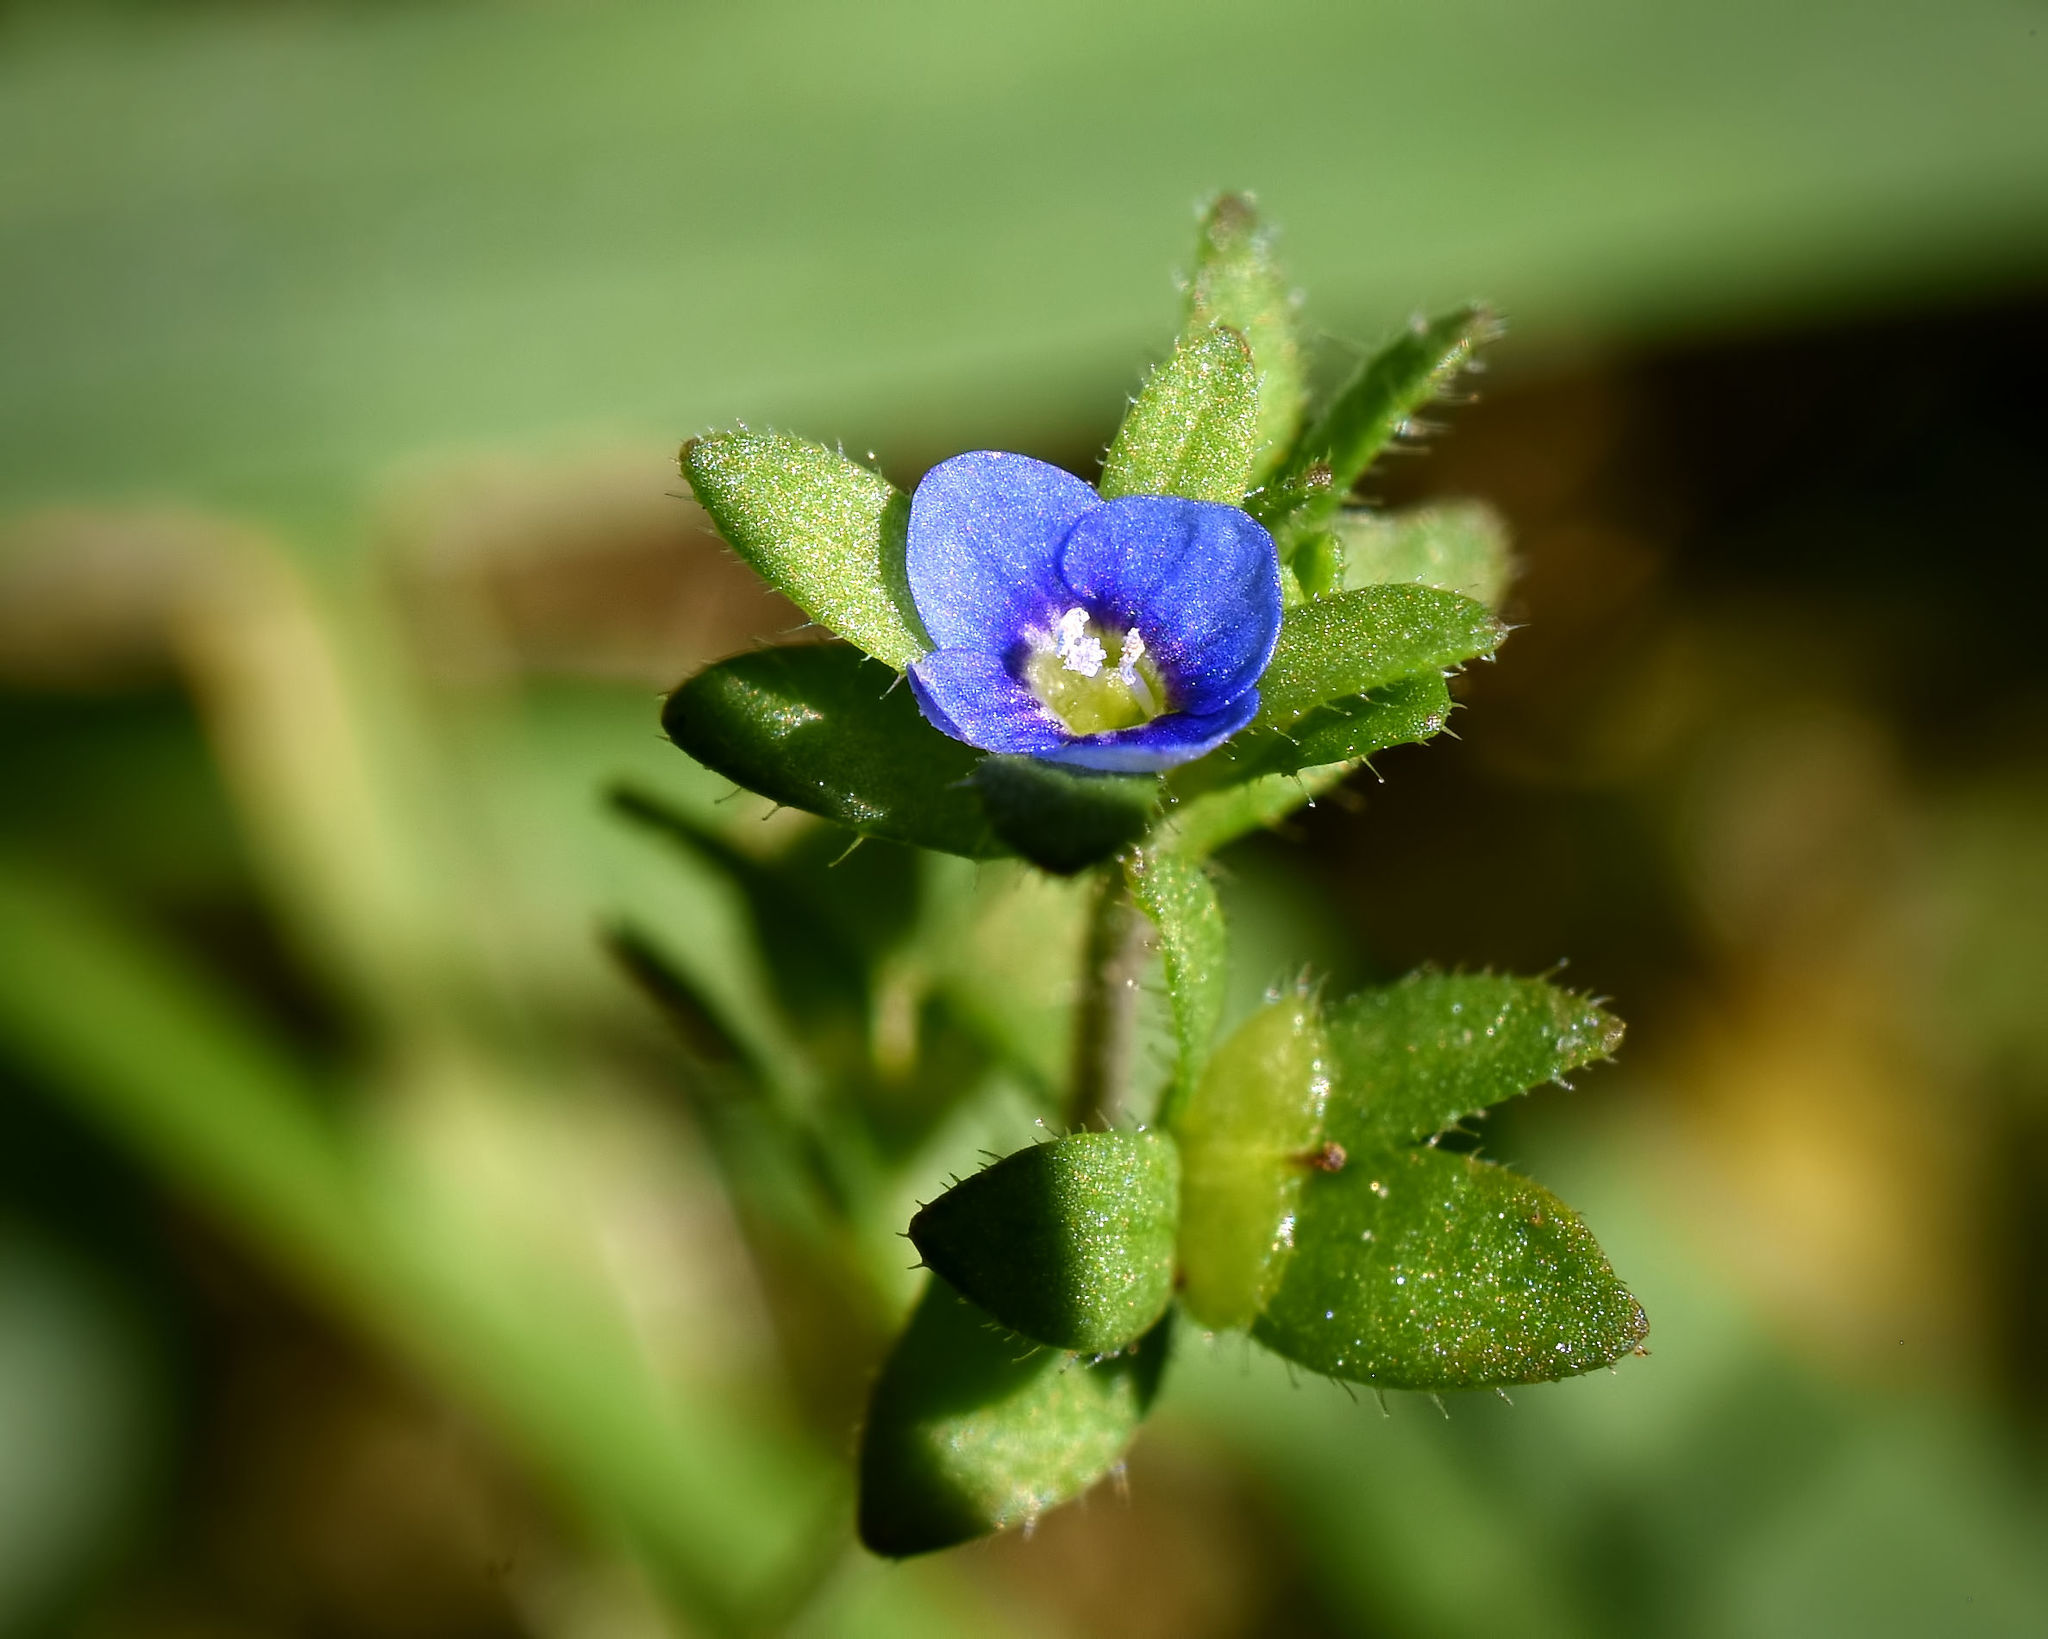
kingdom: Plantae
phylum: Tracheophyta
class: Magnoliopsida
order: Lamiales
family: Plantaginaceae
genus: Veronica
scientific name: Veronica arvensis
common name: Corn speedwell
